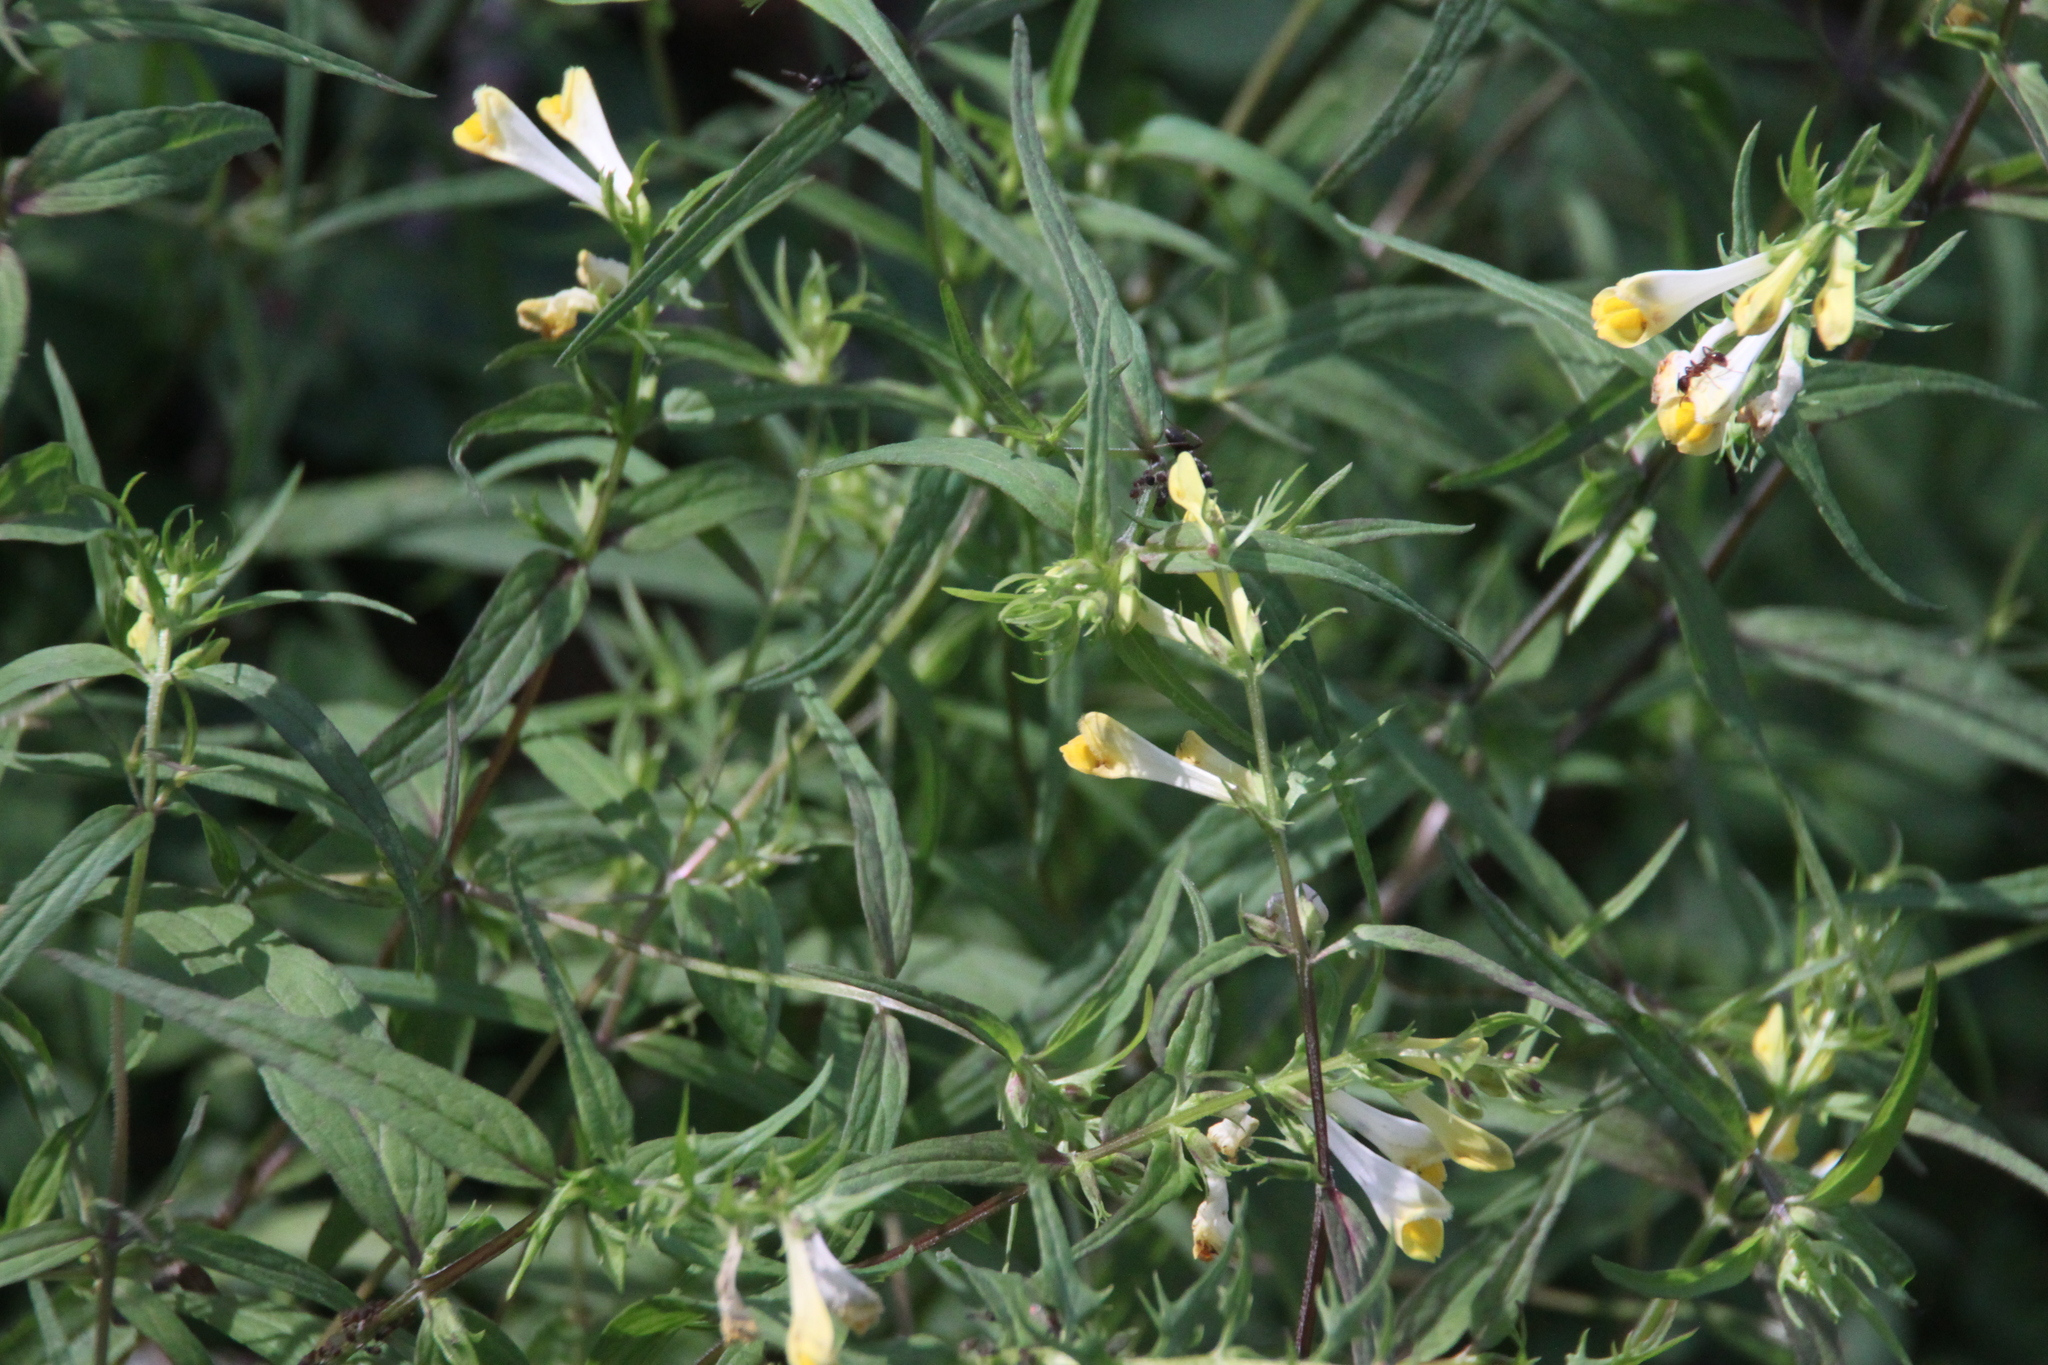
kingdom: Plantae
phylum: Tracheophyta
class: Magnoliopsida
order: Lamiales
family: Orobanchaceae
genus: Melampyrum
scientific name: Melampyrum pratense
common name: Common cow-wheat
